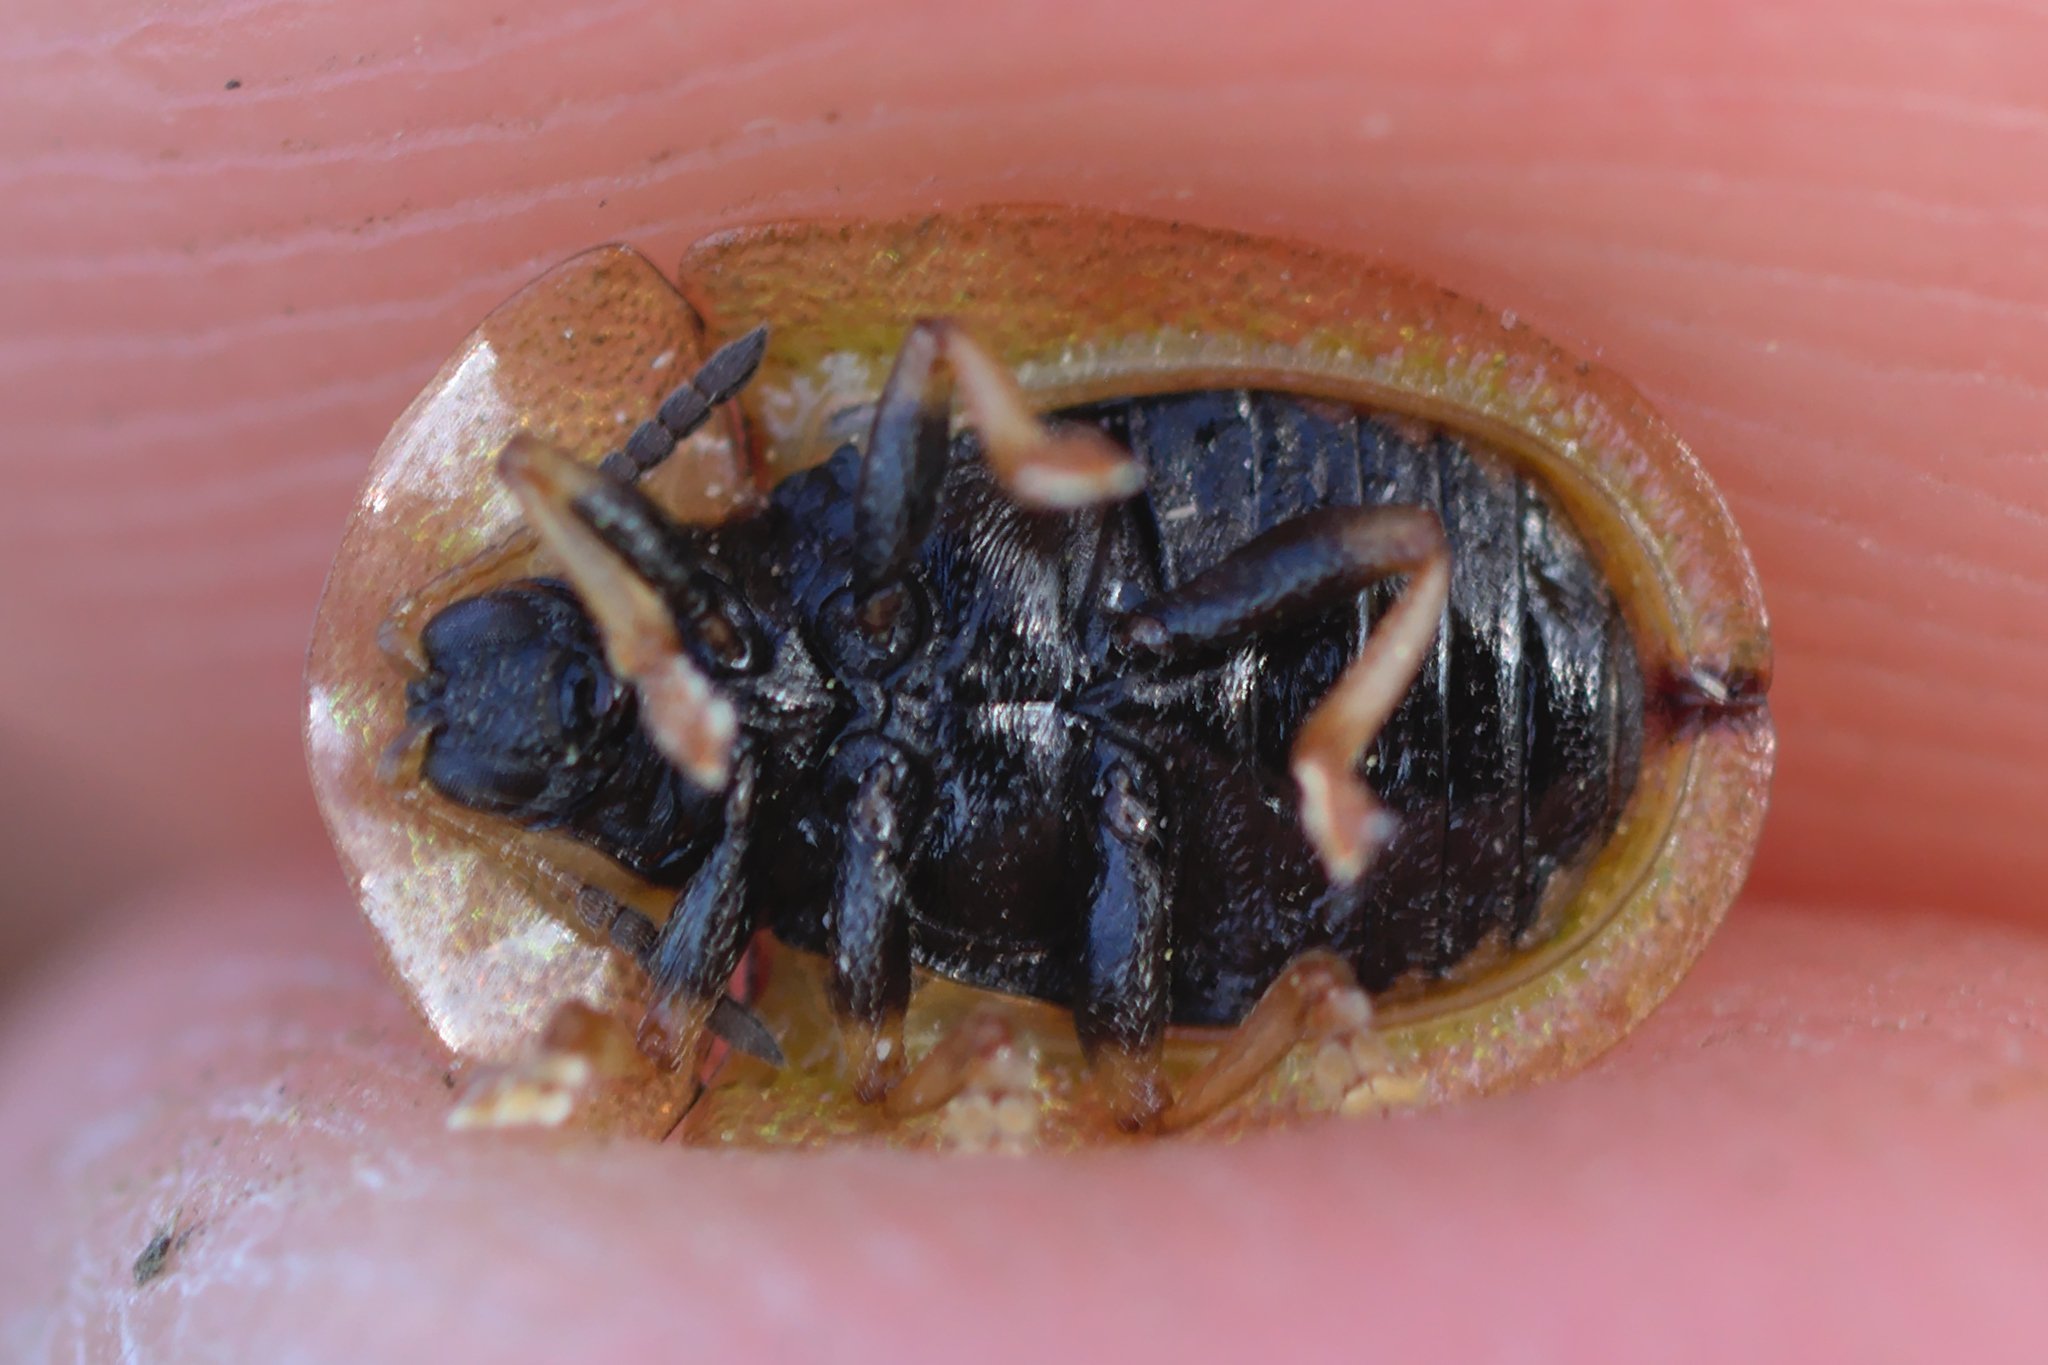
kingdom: Animalia
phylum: Arthropoda
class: Insecta
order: Coleoptera
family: Chrysomelidae
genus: Cassida
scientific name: Cassida vibex
